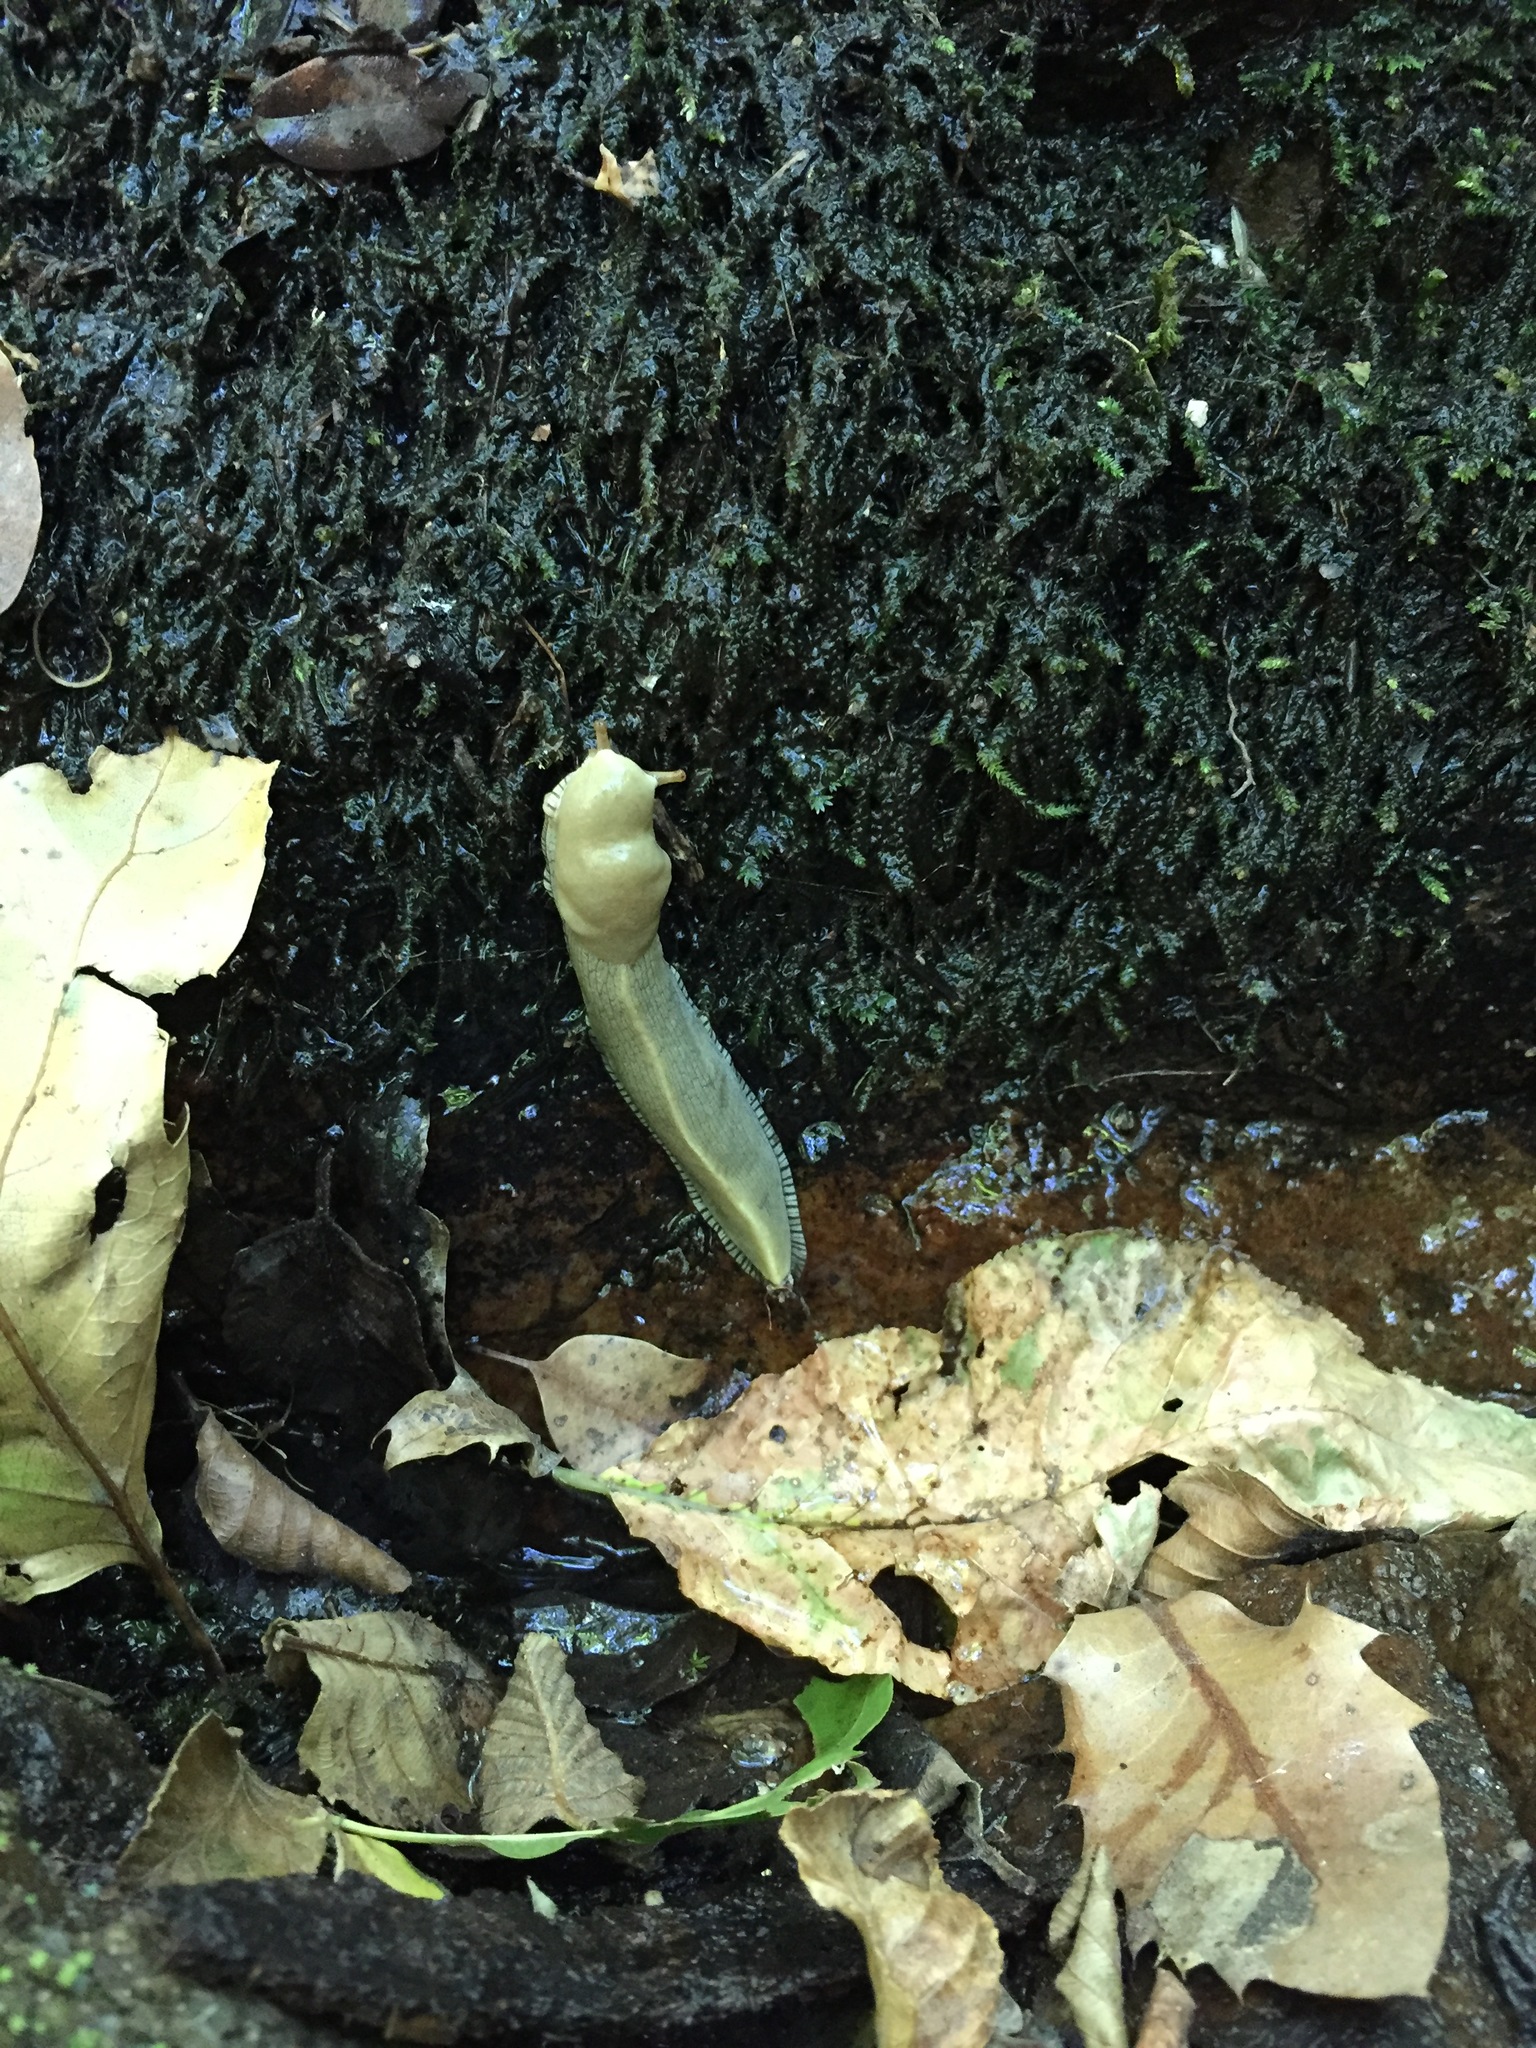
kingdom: Animalia
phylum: Mollusca
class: Gastropoda
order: Stylommatophora
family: Ariolimacidae
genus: Ariolimax
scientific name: Ariolimax buttoni
